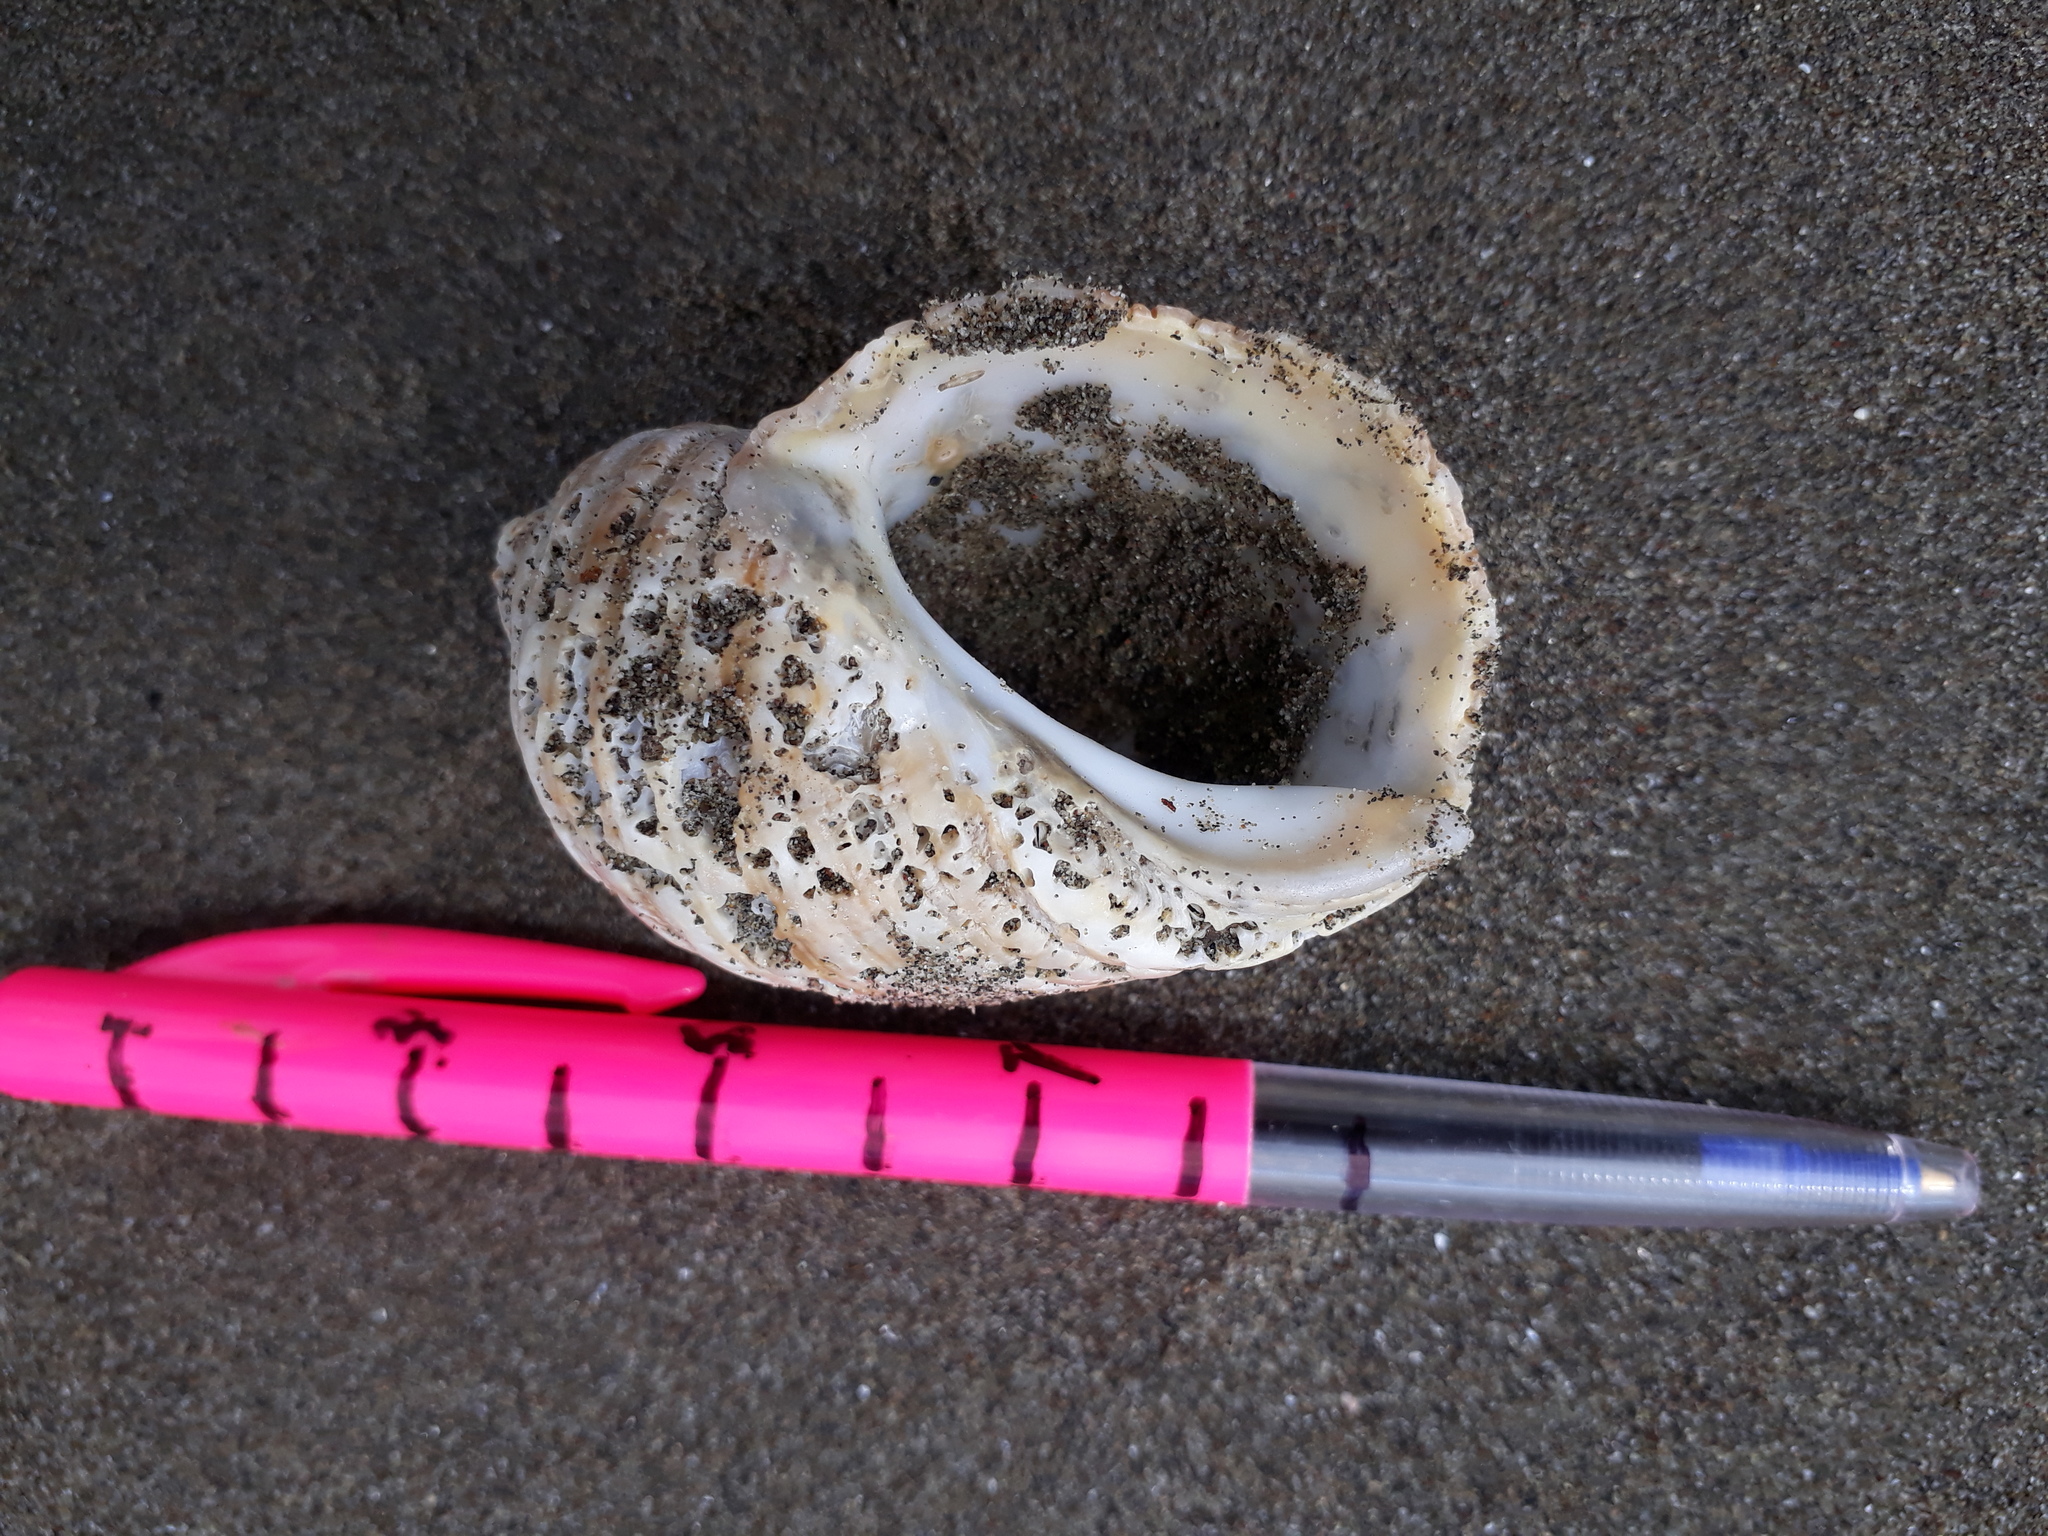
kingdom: Animalia
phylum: Mollusca
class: Gastropoda
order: Neogastropoda
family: Muricidae
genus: Dicathais
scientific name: Dicathais orbita
